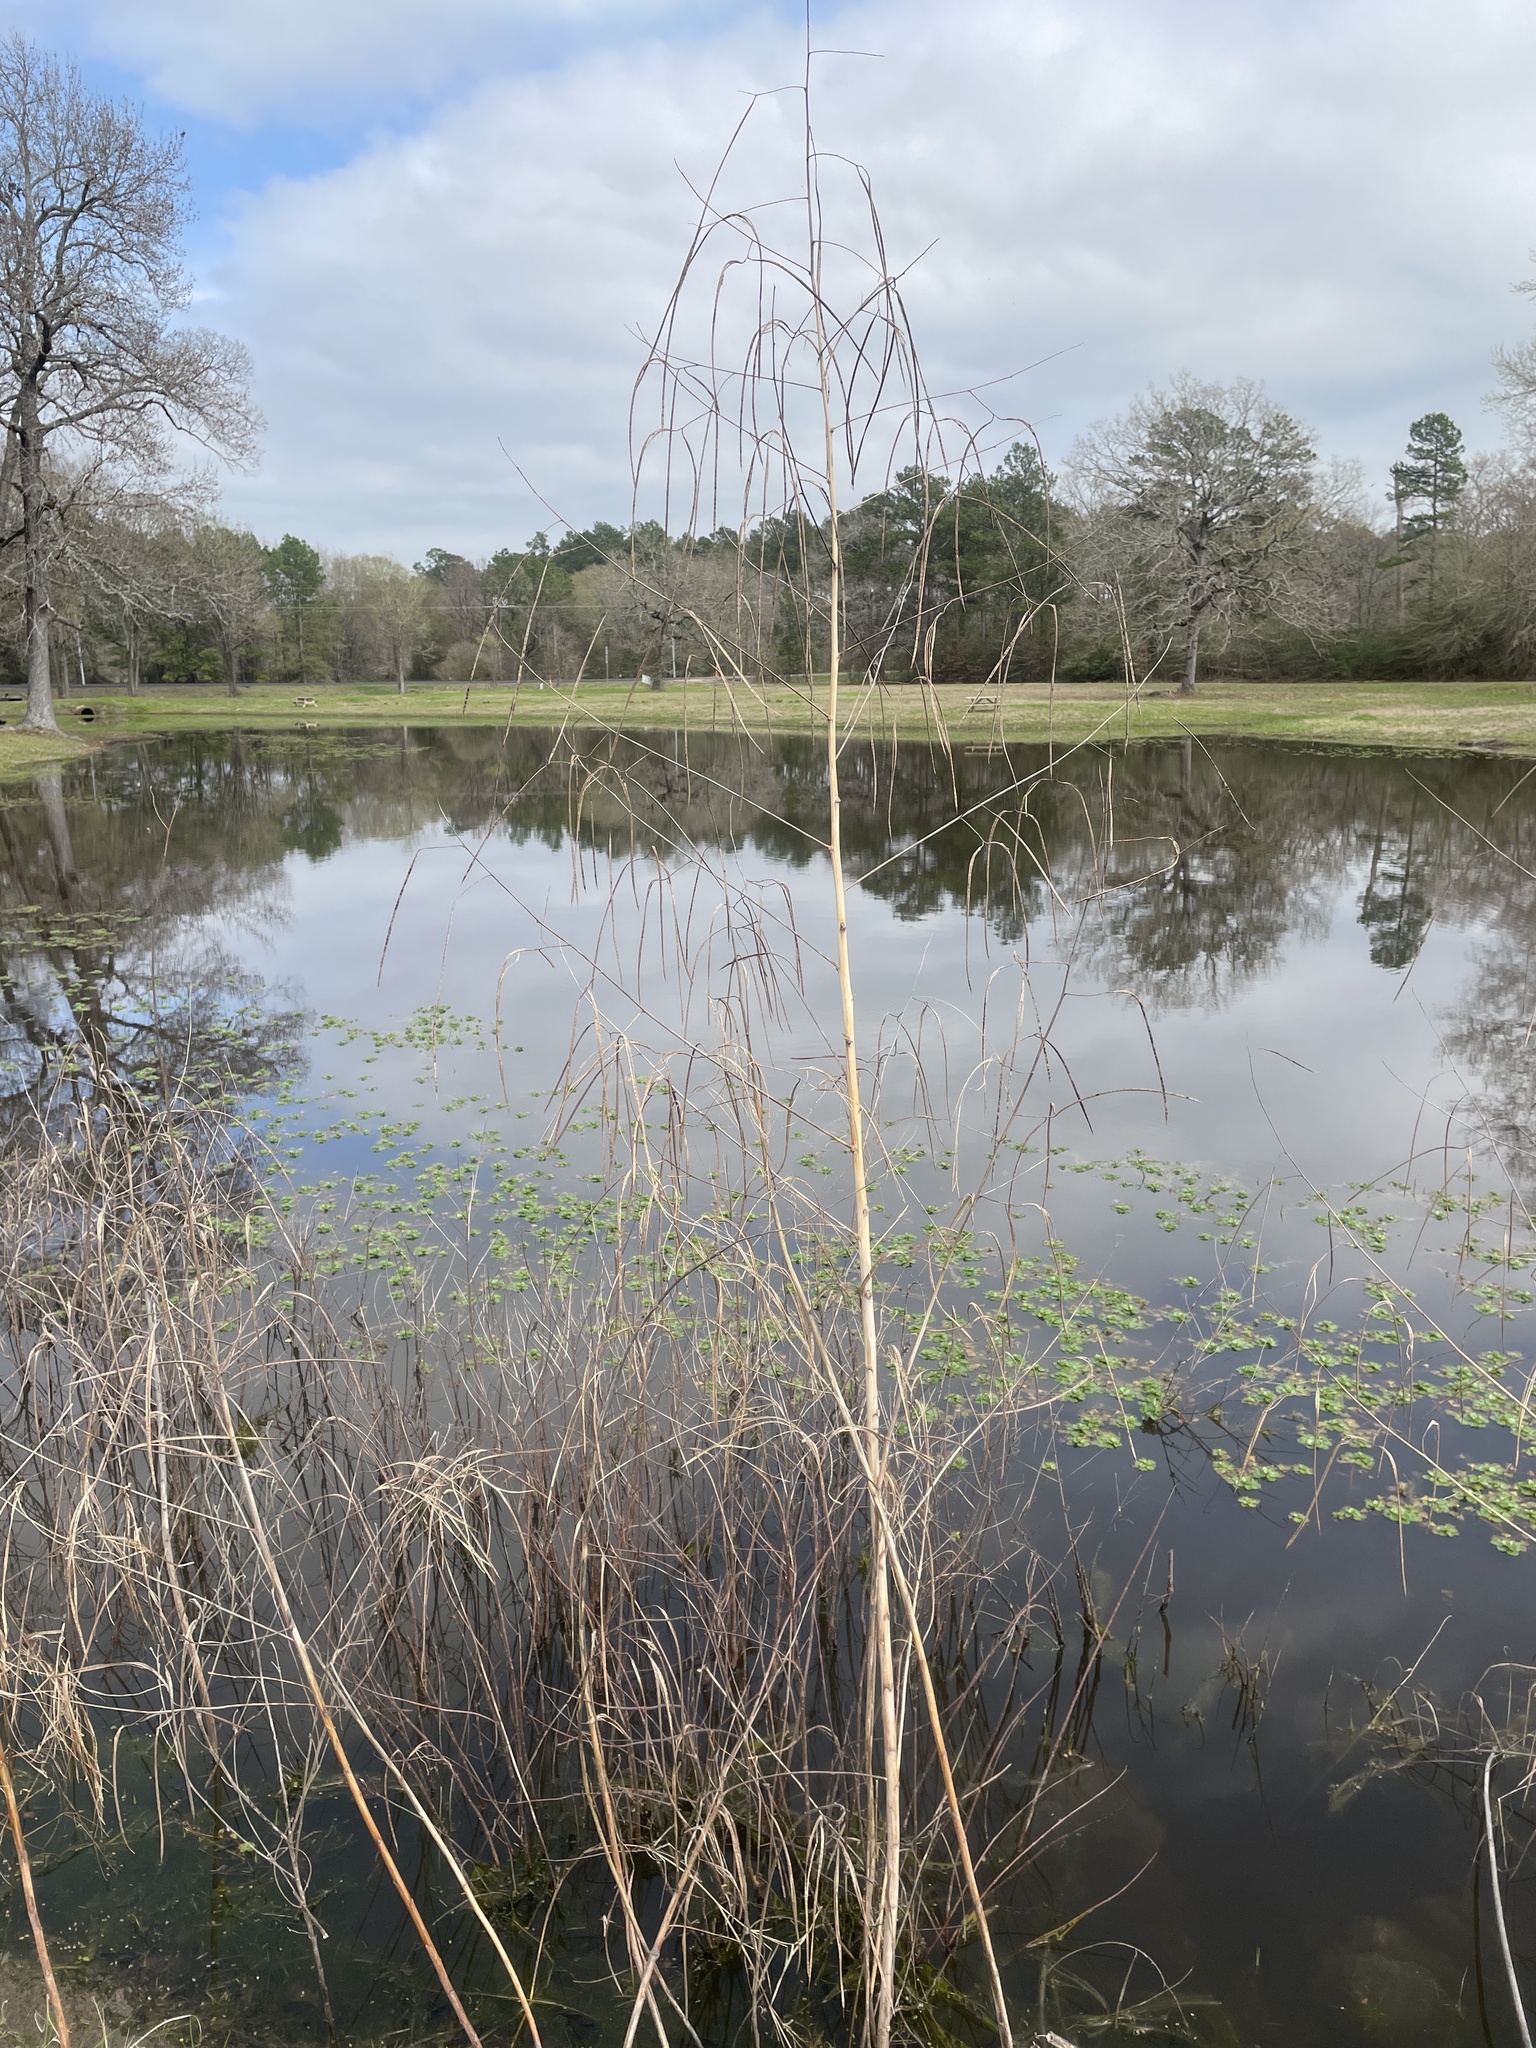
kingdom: Plantae
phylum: Tracheophyta
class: Magnoliopsida
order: Fabales
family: Fabaceae
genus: Sesbania
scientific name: Sesbania herbacea
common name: Bigpod sesbania
